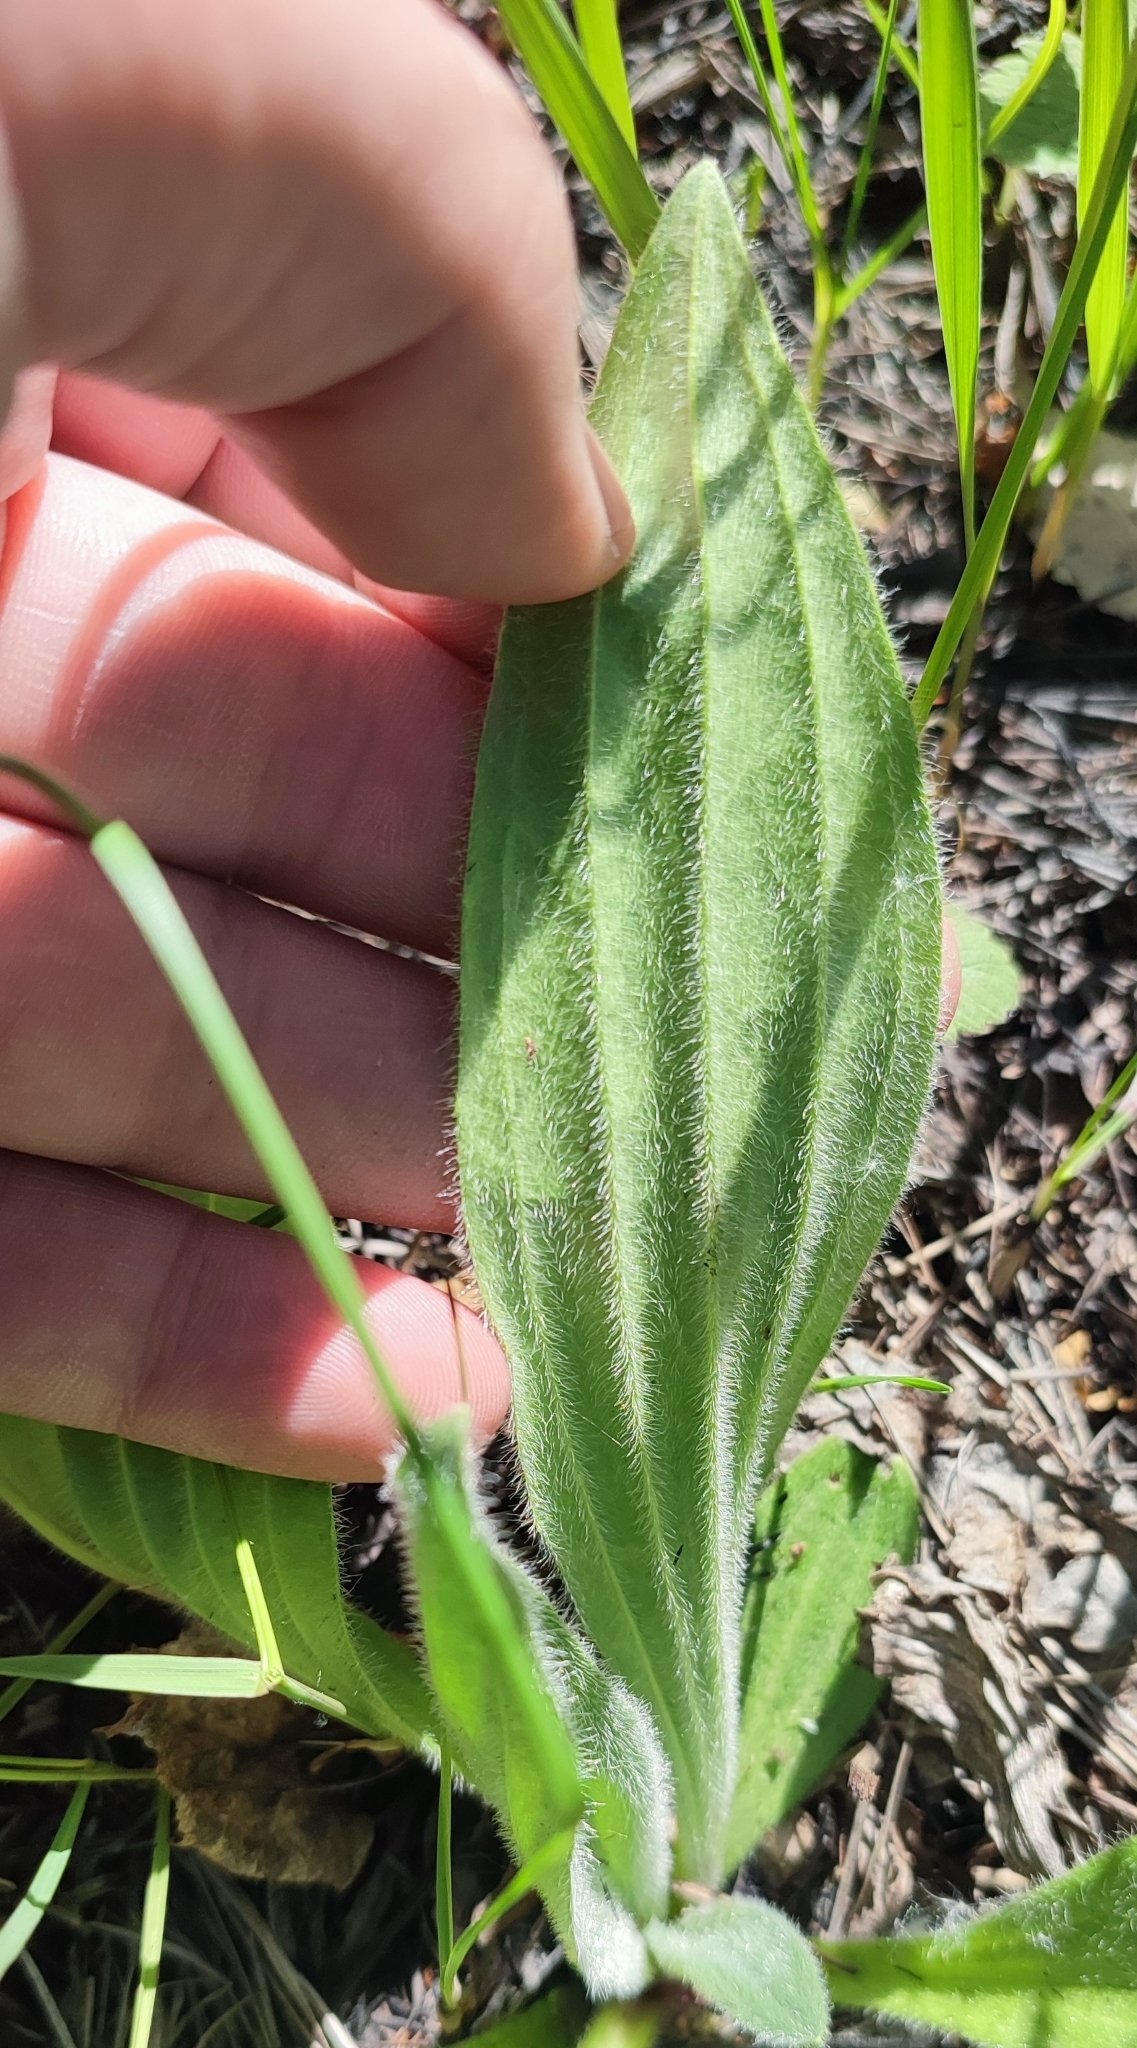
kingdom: Plantae
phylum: Tracheophyta
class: Magnoliopsida
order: Lamiales
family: Plantaginaceae
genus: Plantago
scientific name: Plantago urvillei
